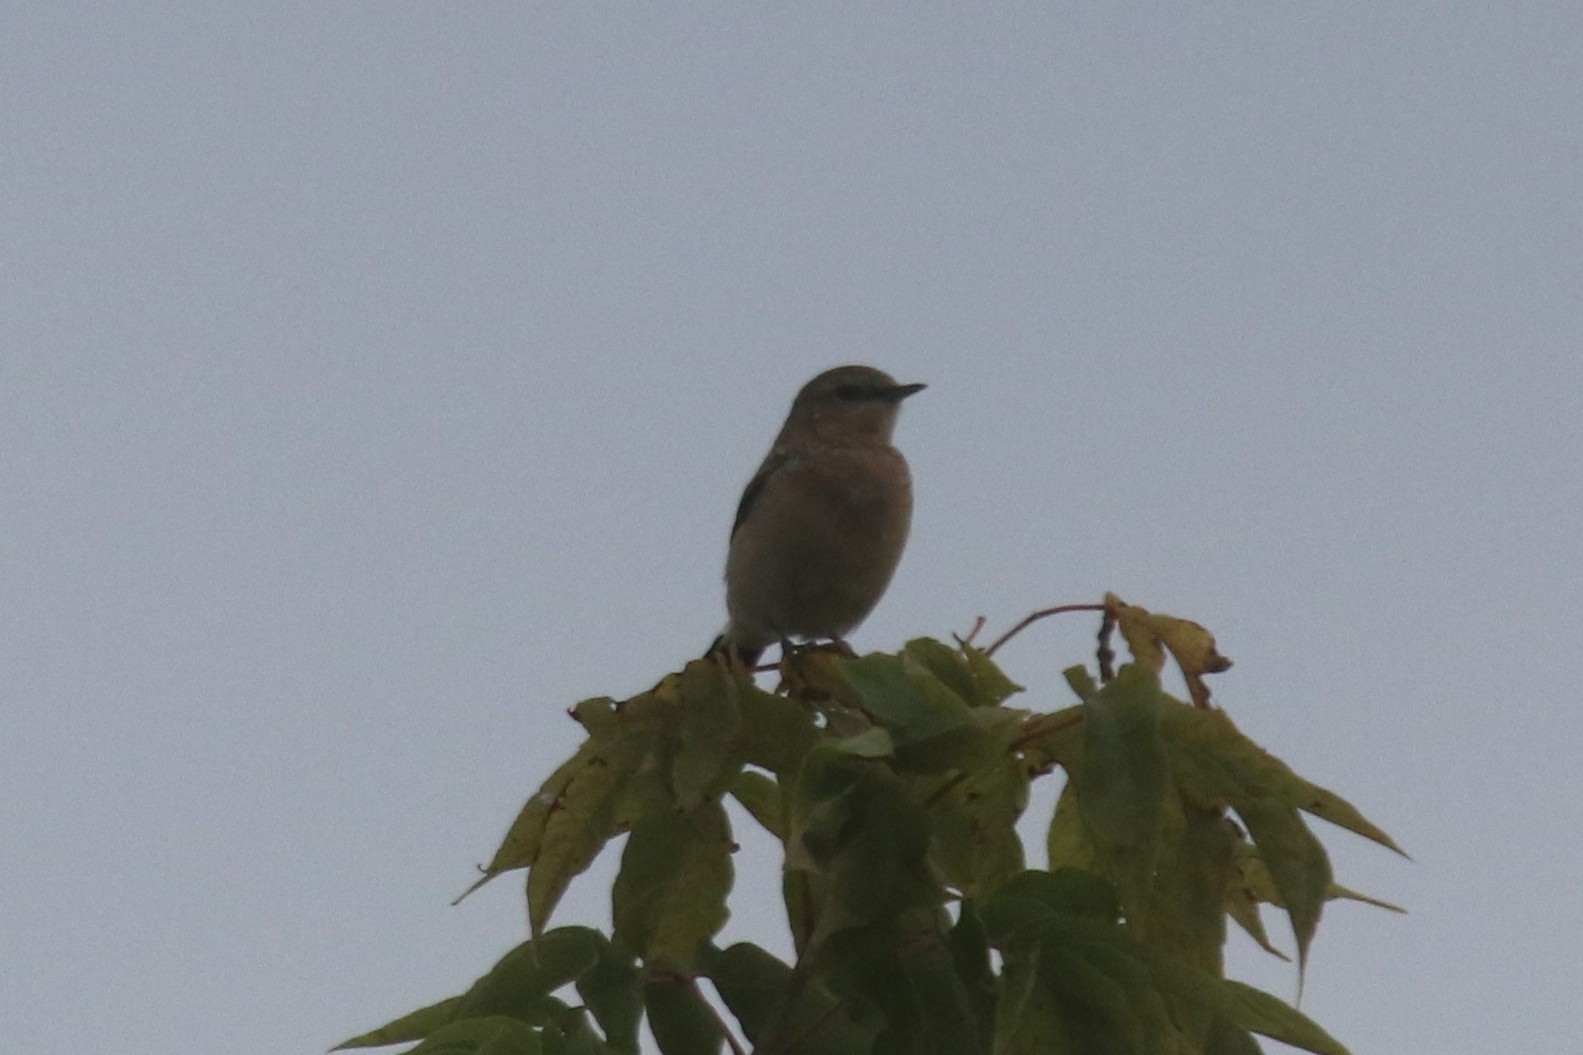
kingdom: Animalia
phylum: Chordata
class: Aves
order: Passeriformes
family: Muscicapidae
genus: Saxicola
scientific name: Saxicola maurus
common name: Siberian stonechat
